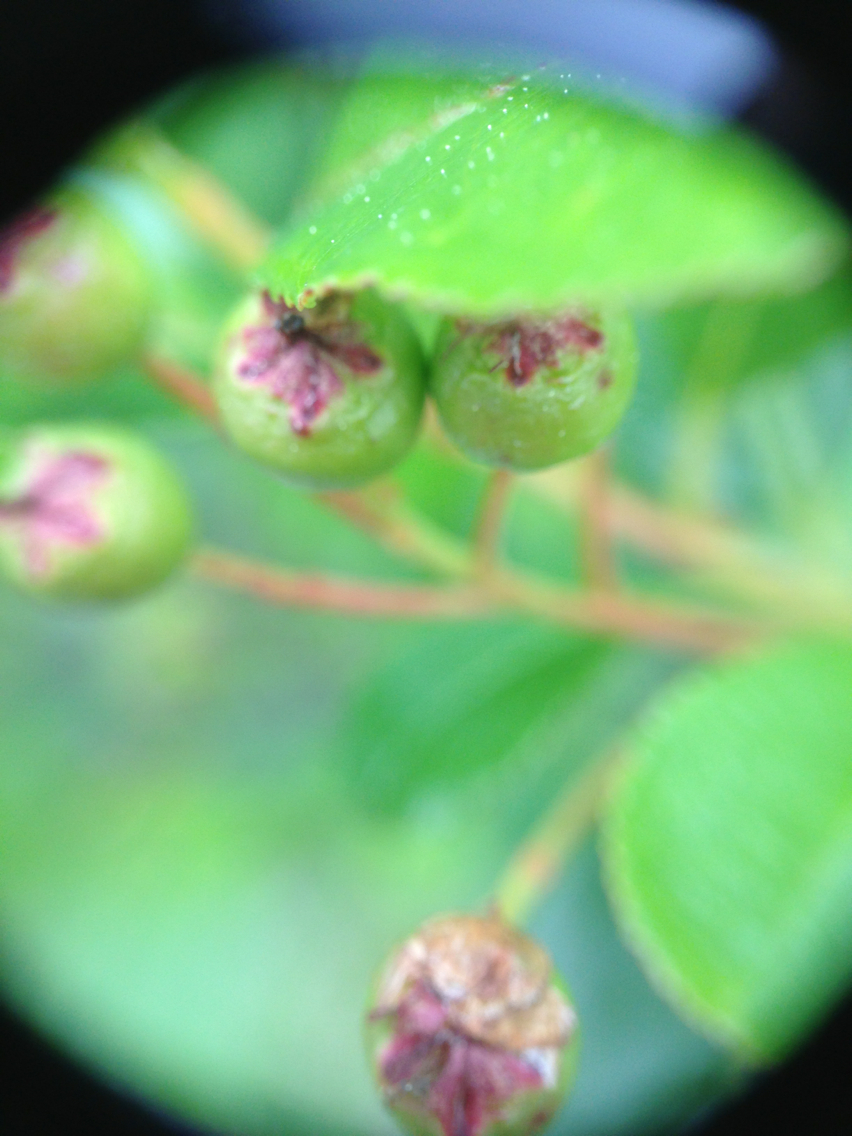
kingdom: Plantae
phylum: Tracheophyta
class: Magnoliopsida
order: Rosales
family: Rosaceae
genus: Aronia
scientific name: Aronia melanocarpa
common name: Black chokeberry
